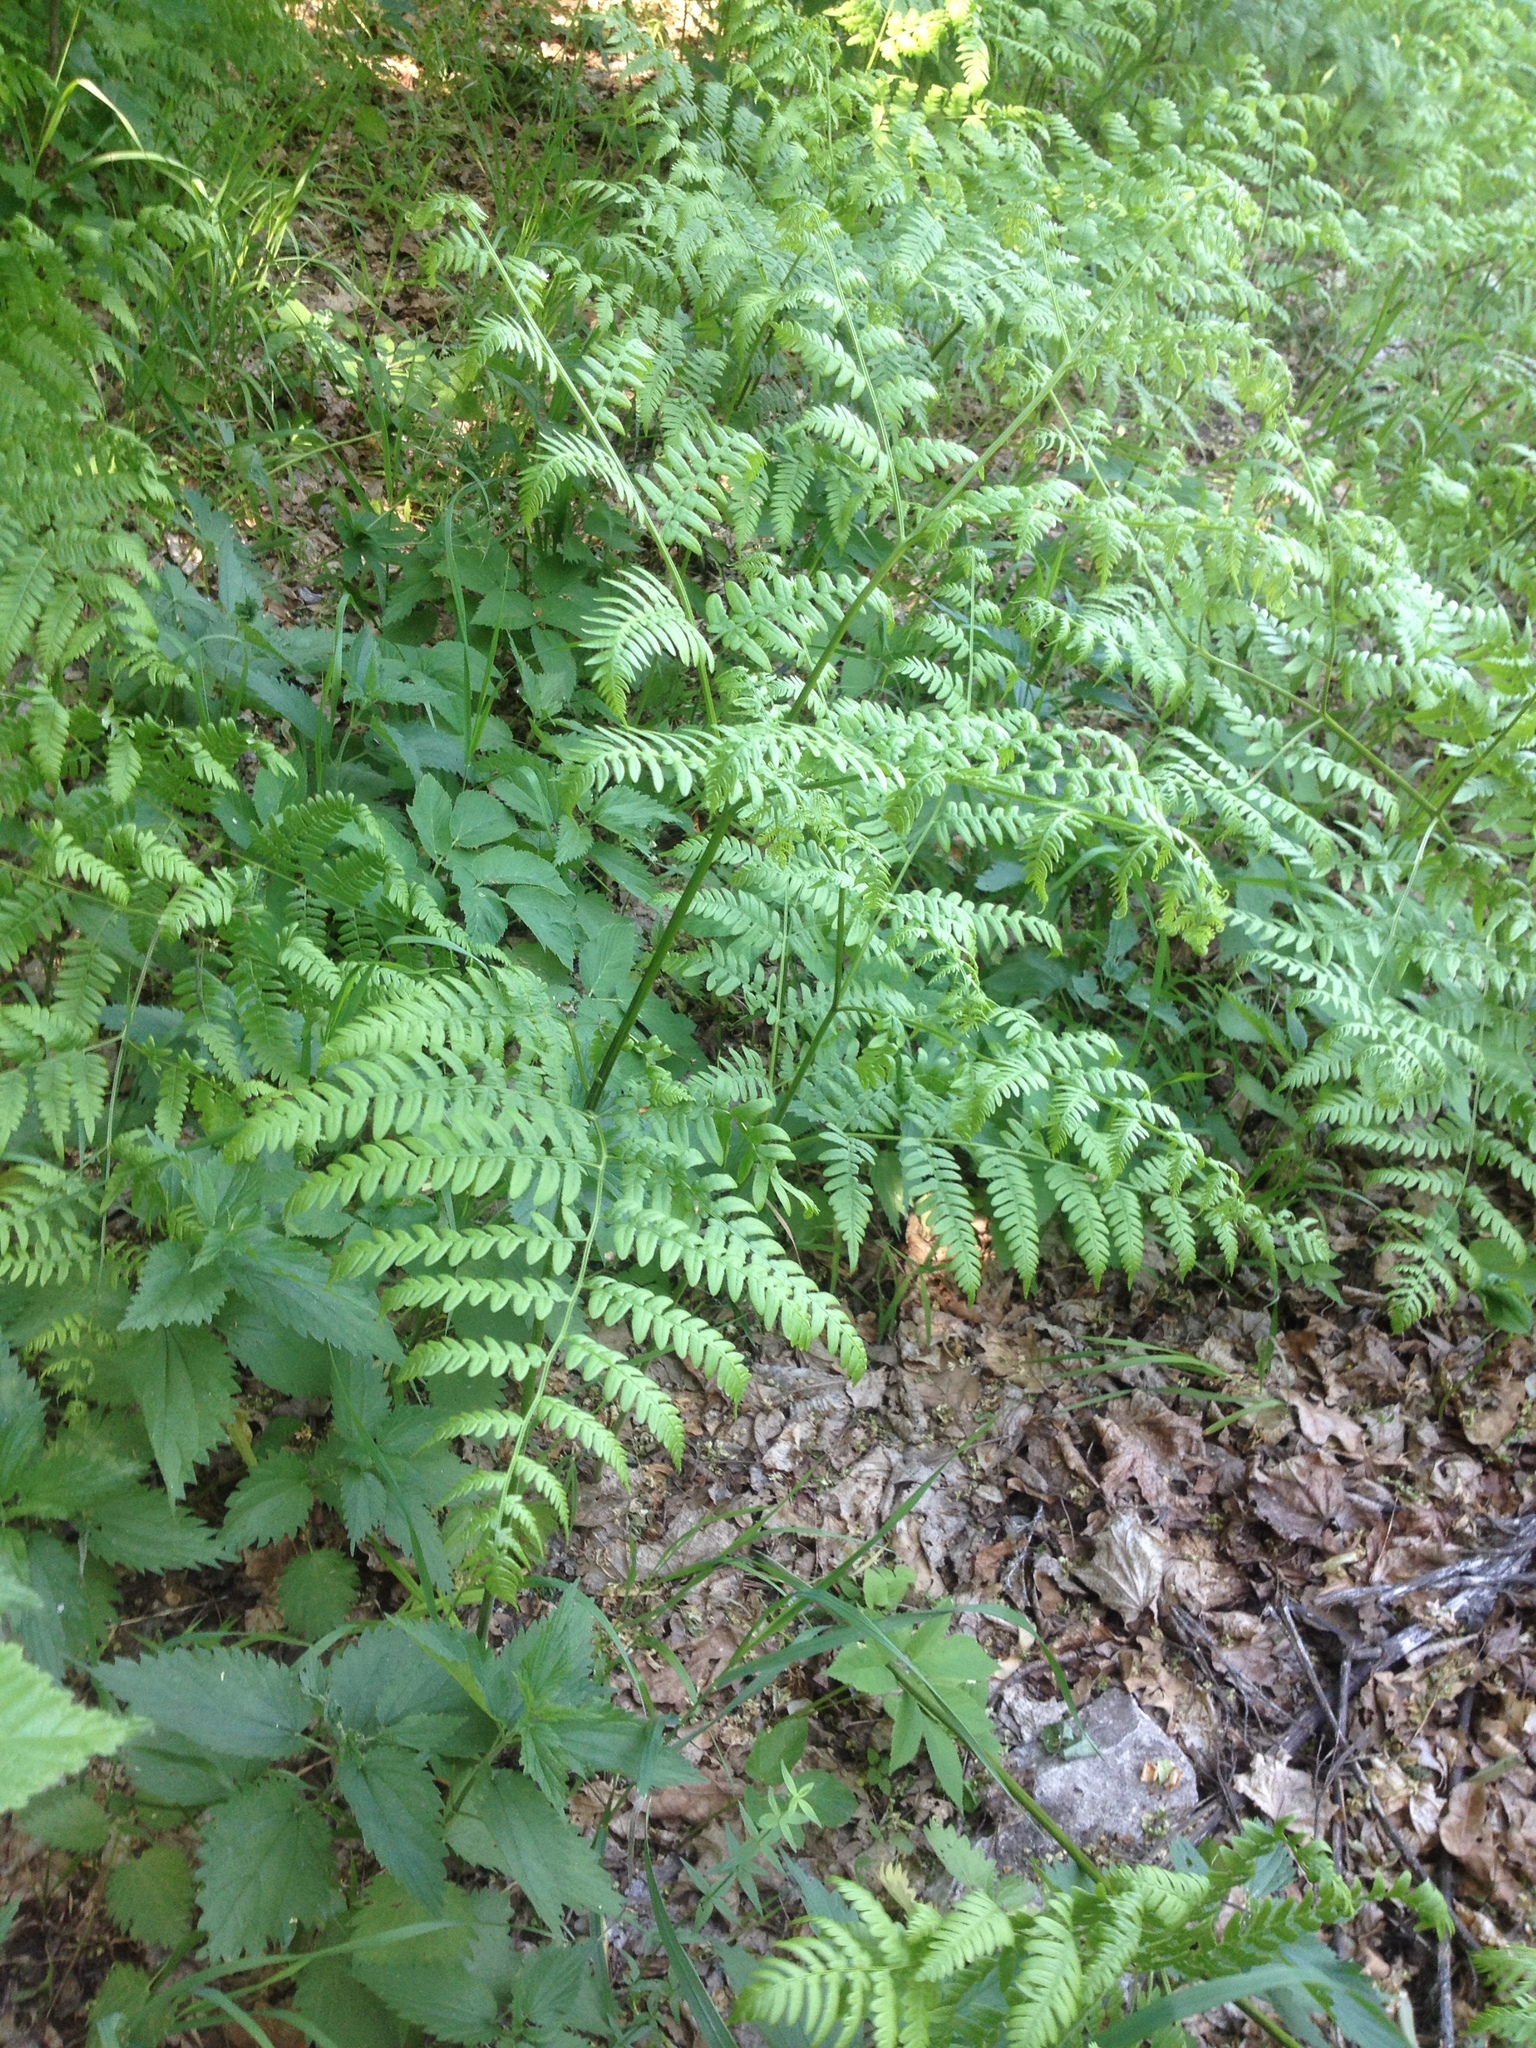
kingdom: Plantae
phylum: Tracheophyta
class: Polypodiopsida
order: Polypodiales
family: Dennstaedtiaceae
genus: Pteridium
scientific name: Pteridium aquilinum
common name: Bracken
